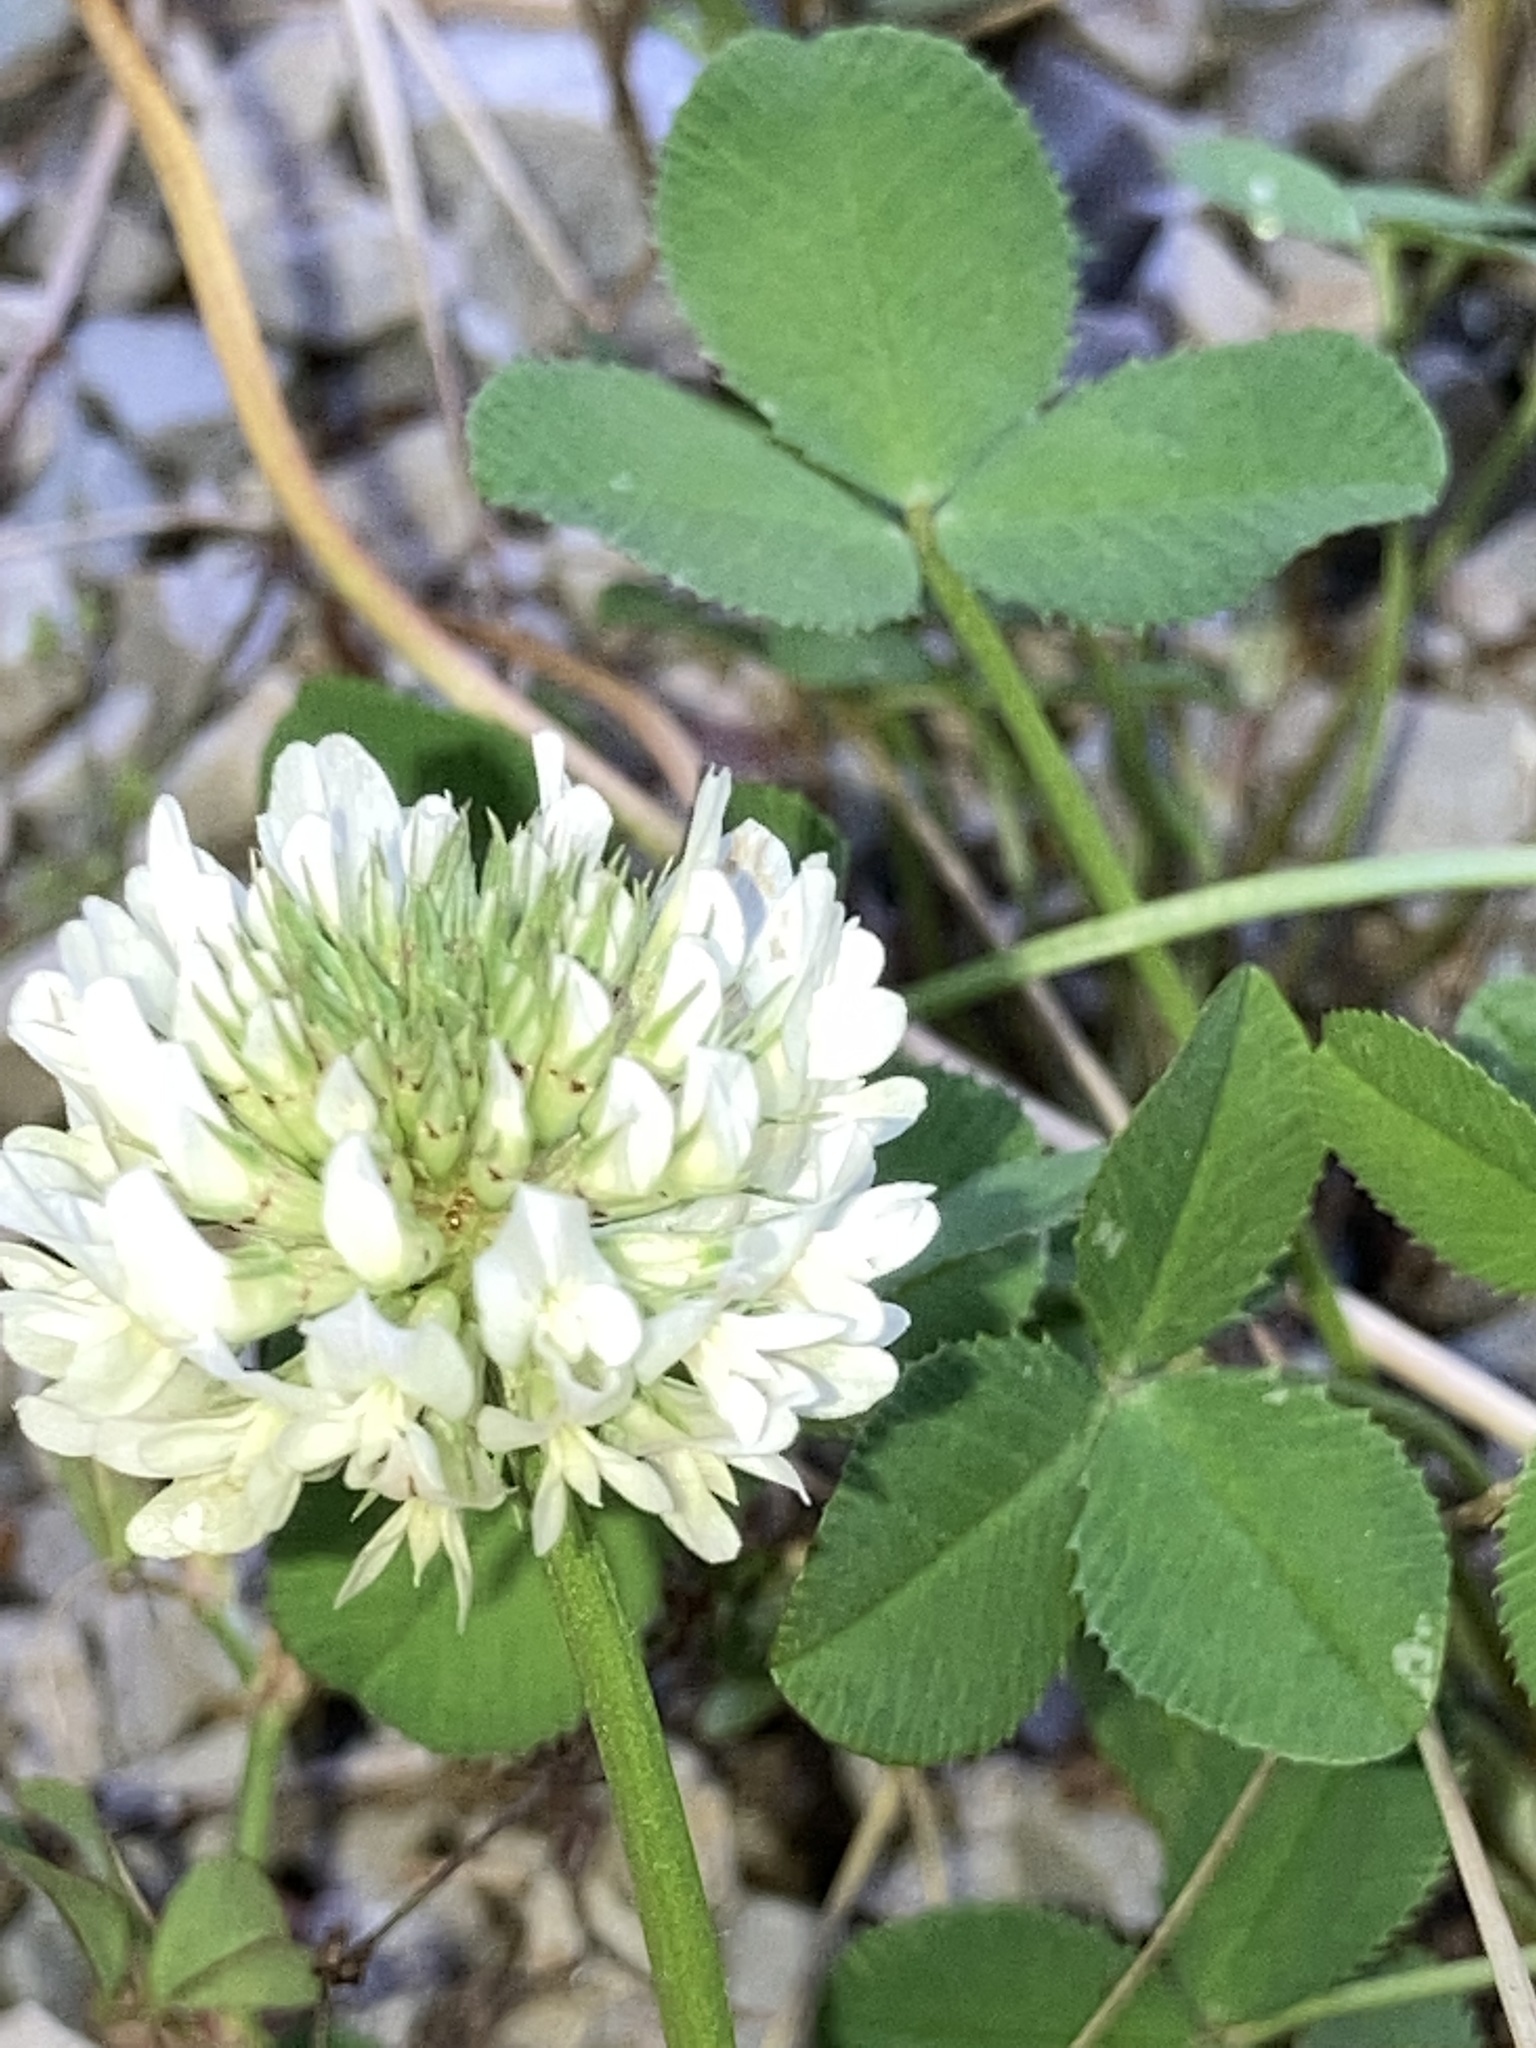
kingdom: Plantae
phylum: Tracheophyta
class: Magnoliopsida
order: Fabales
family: Fabaceae
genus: Trifolium
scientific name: Trifolium repens
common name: White clover
